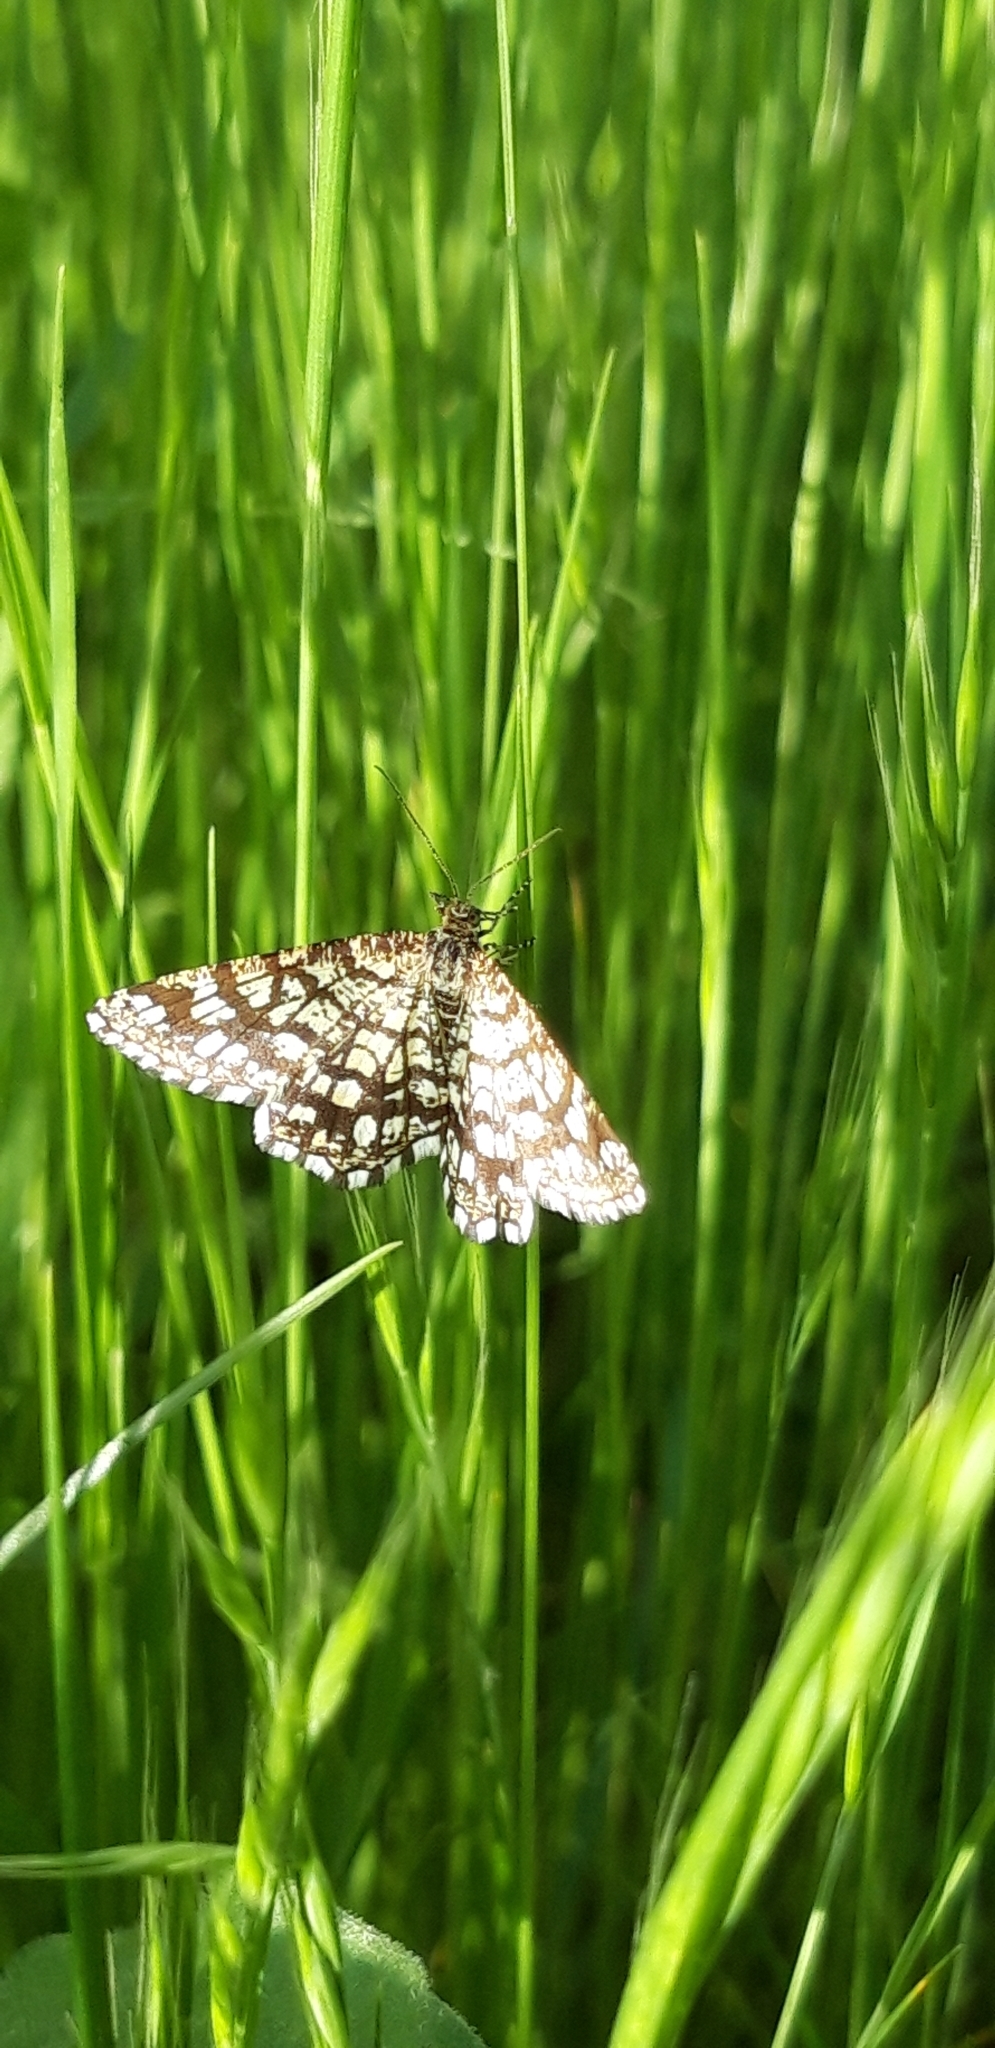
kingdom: Animalia
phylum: Arthropoda
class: Insecta
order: Lepidoptera
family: Geometridae
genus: Chiasmia
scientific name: Chiasmia clathrata
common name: Latticed heath
